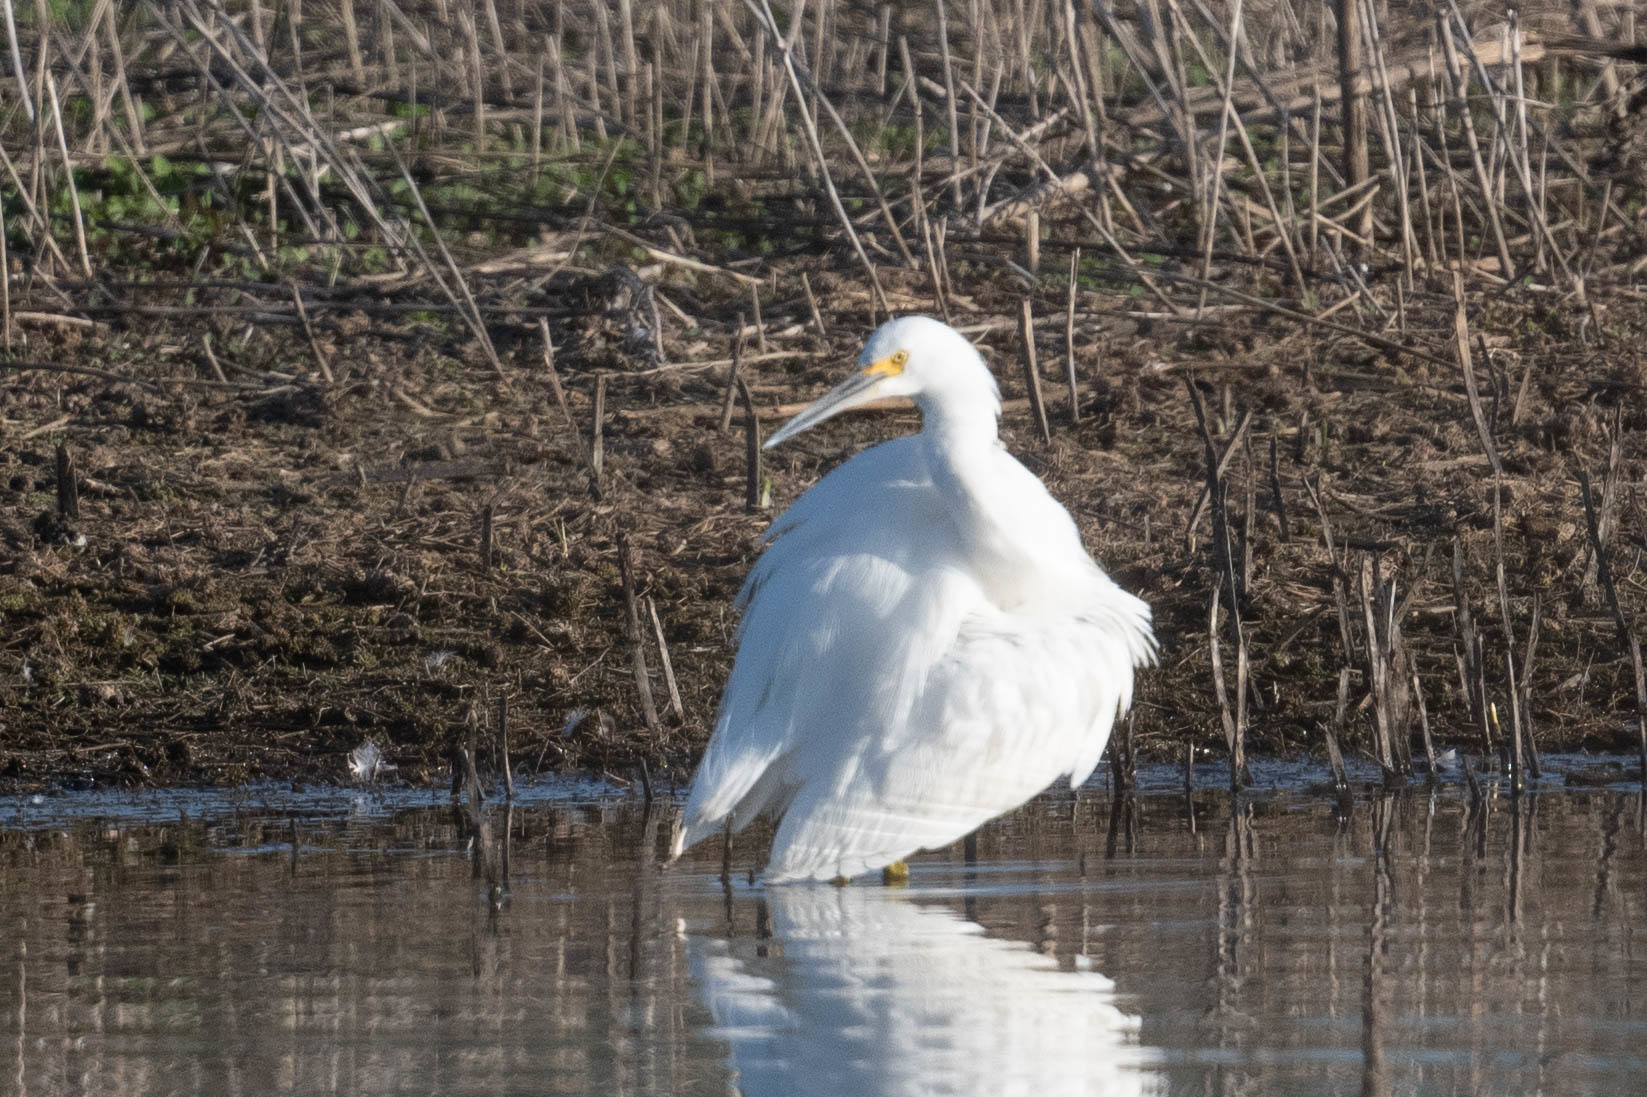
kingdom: Animalia
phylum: Chordata
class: Aves
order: Pelecaniformes
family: Ardeidae
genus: Egretta
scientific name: Egretta thula
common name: Snowy egret
